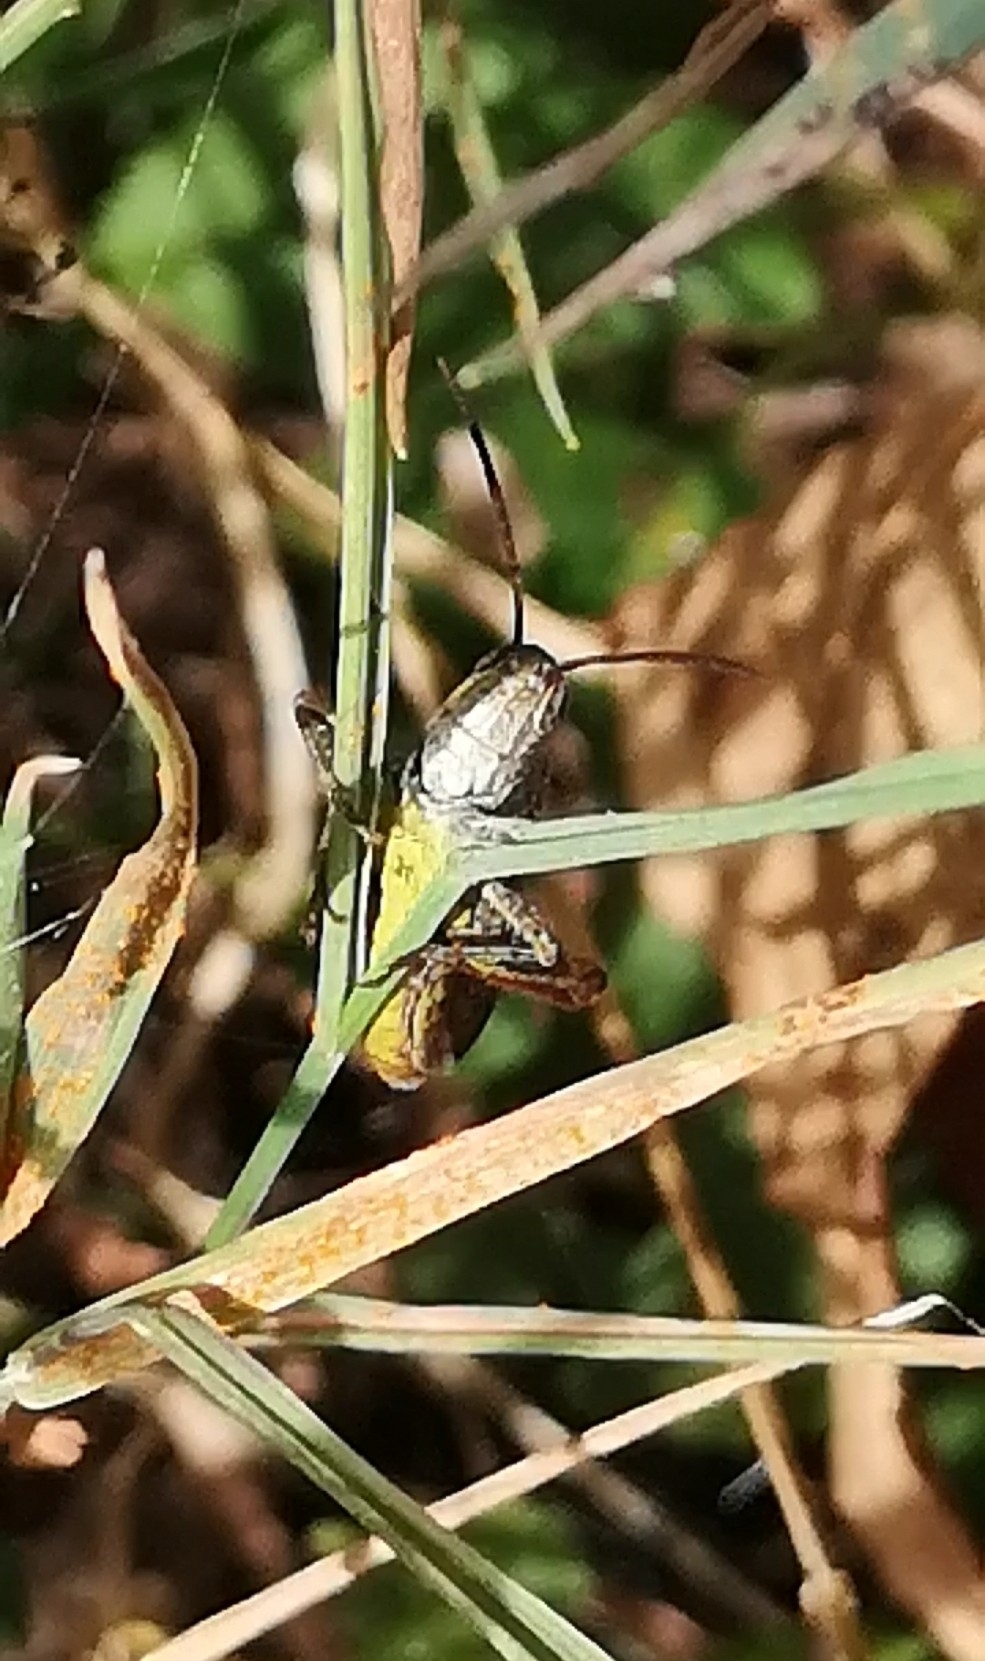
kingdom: Animalia
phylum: Arthropoda
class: Insecta
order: Orthoptera
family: Acrididae
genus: Chorthippus
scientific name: Chorthippus brunneus
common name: Field grasshopper
